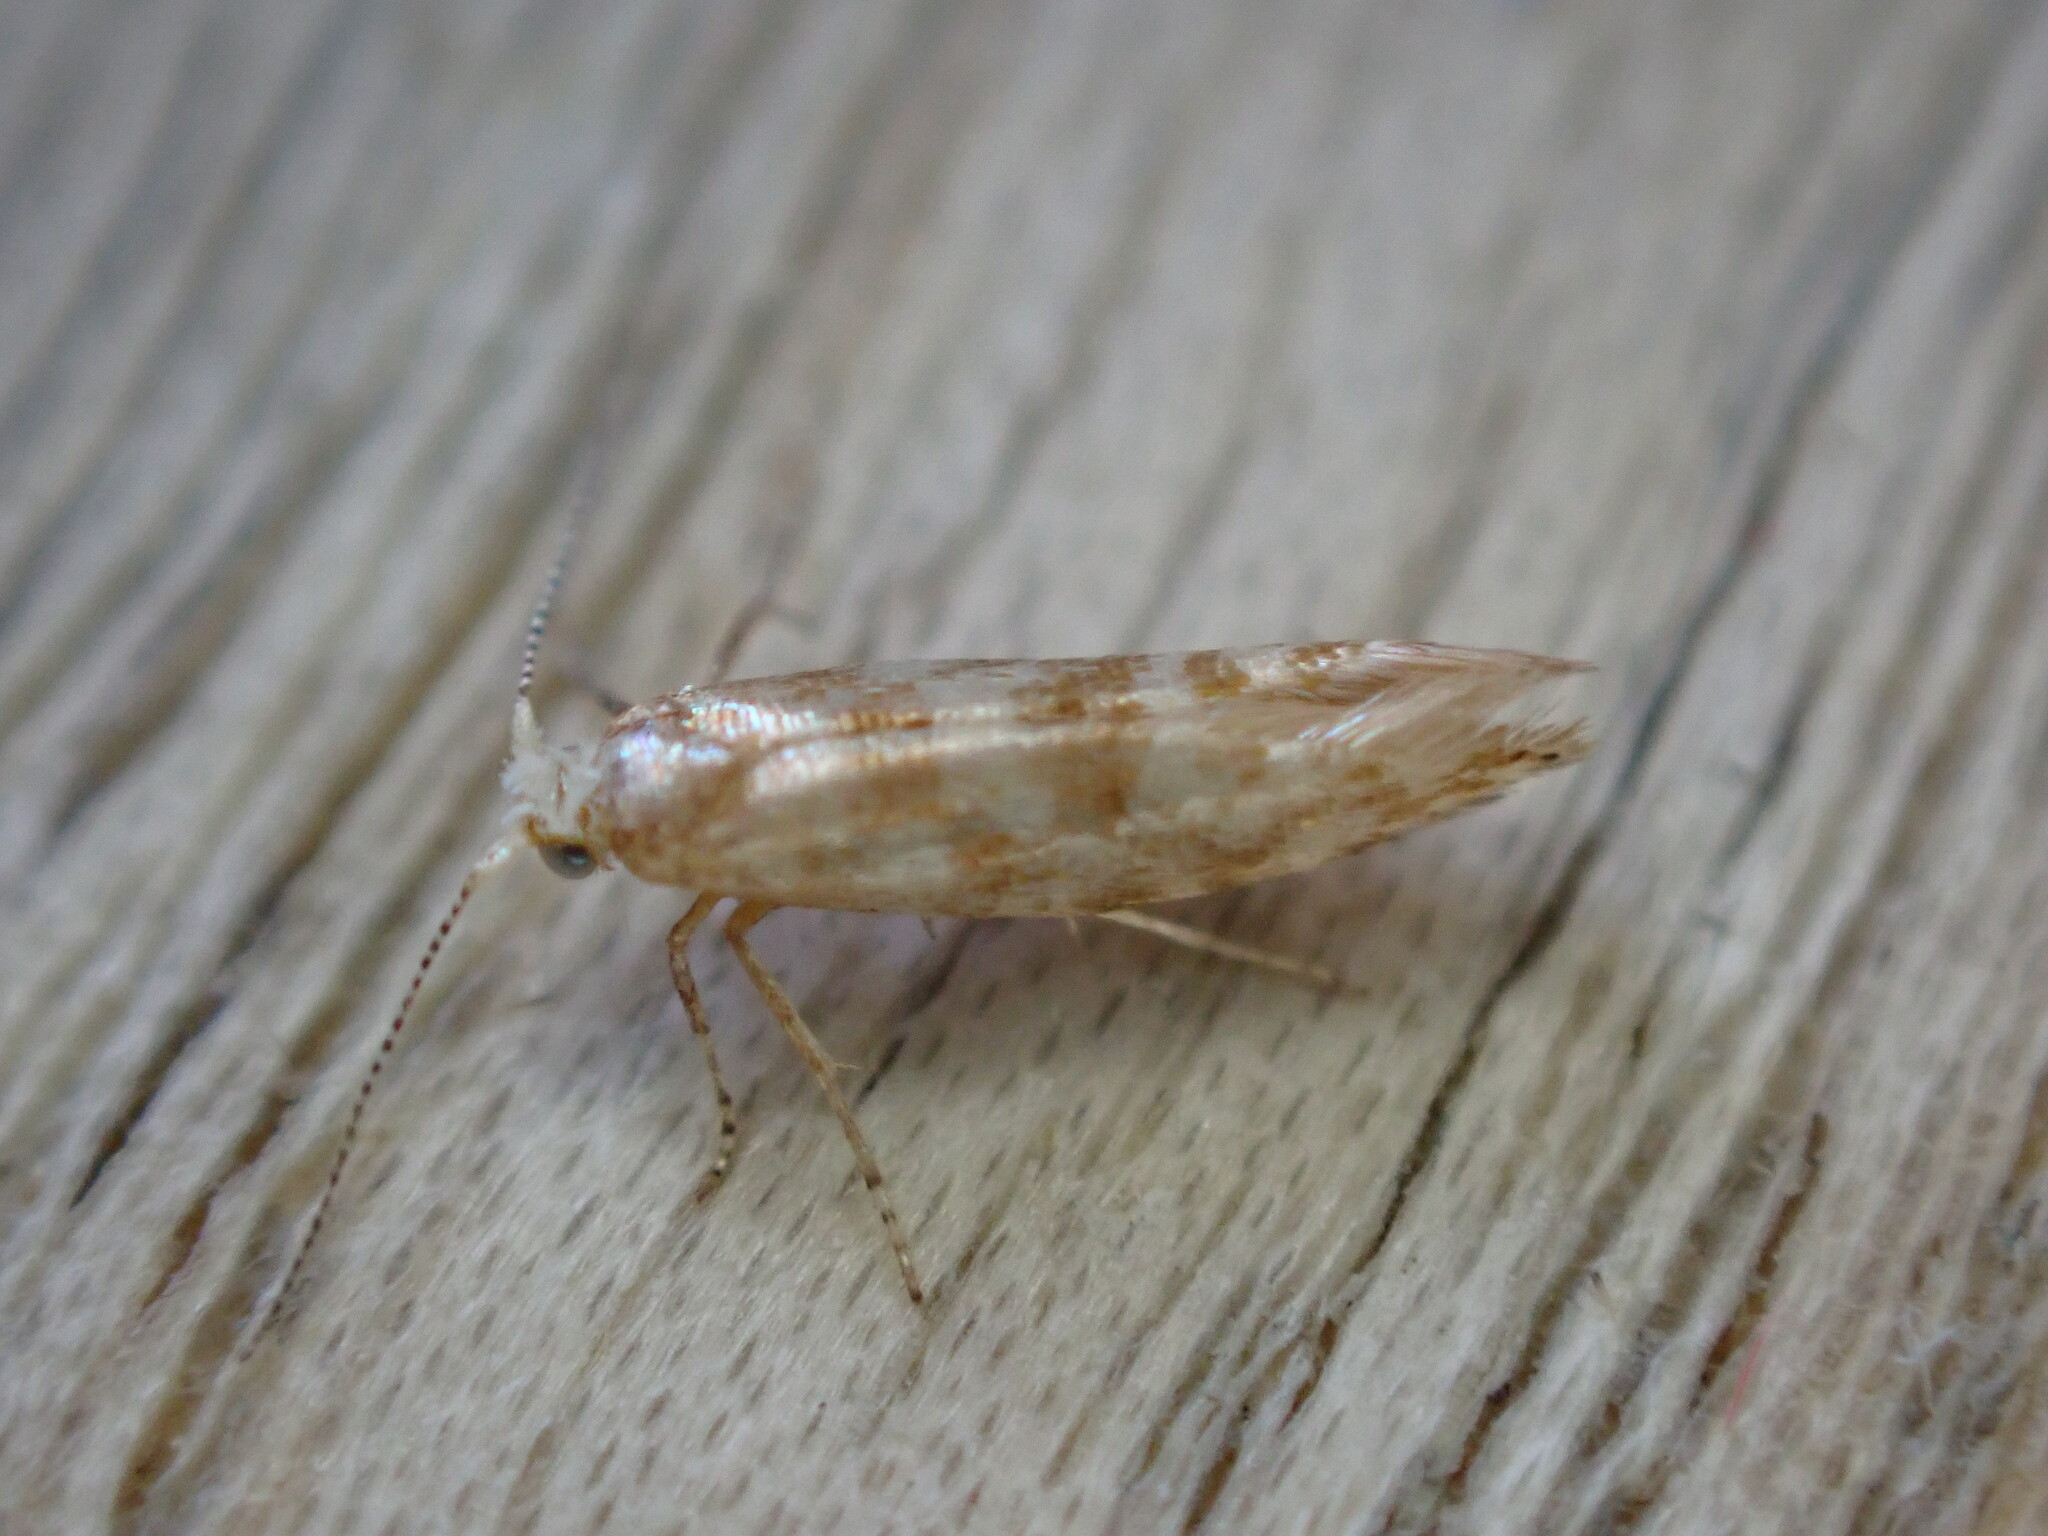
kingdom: Animalia
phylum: Arthropoda
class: Insecta
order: Lepidoptera
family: Argyresthiidae
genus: Argyresthia
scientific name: Argyresthia cupressella
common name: Cypress tip moth
